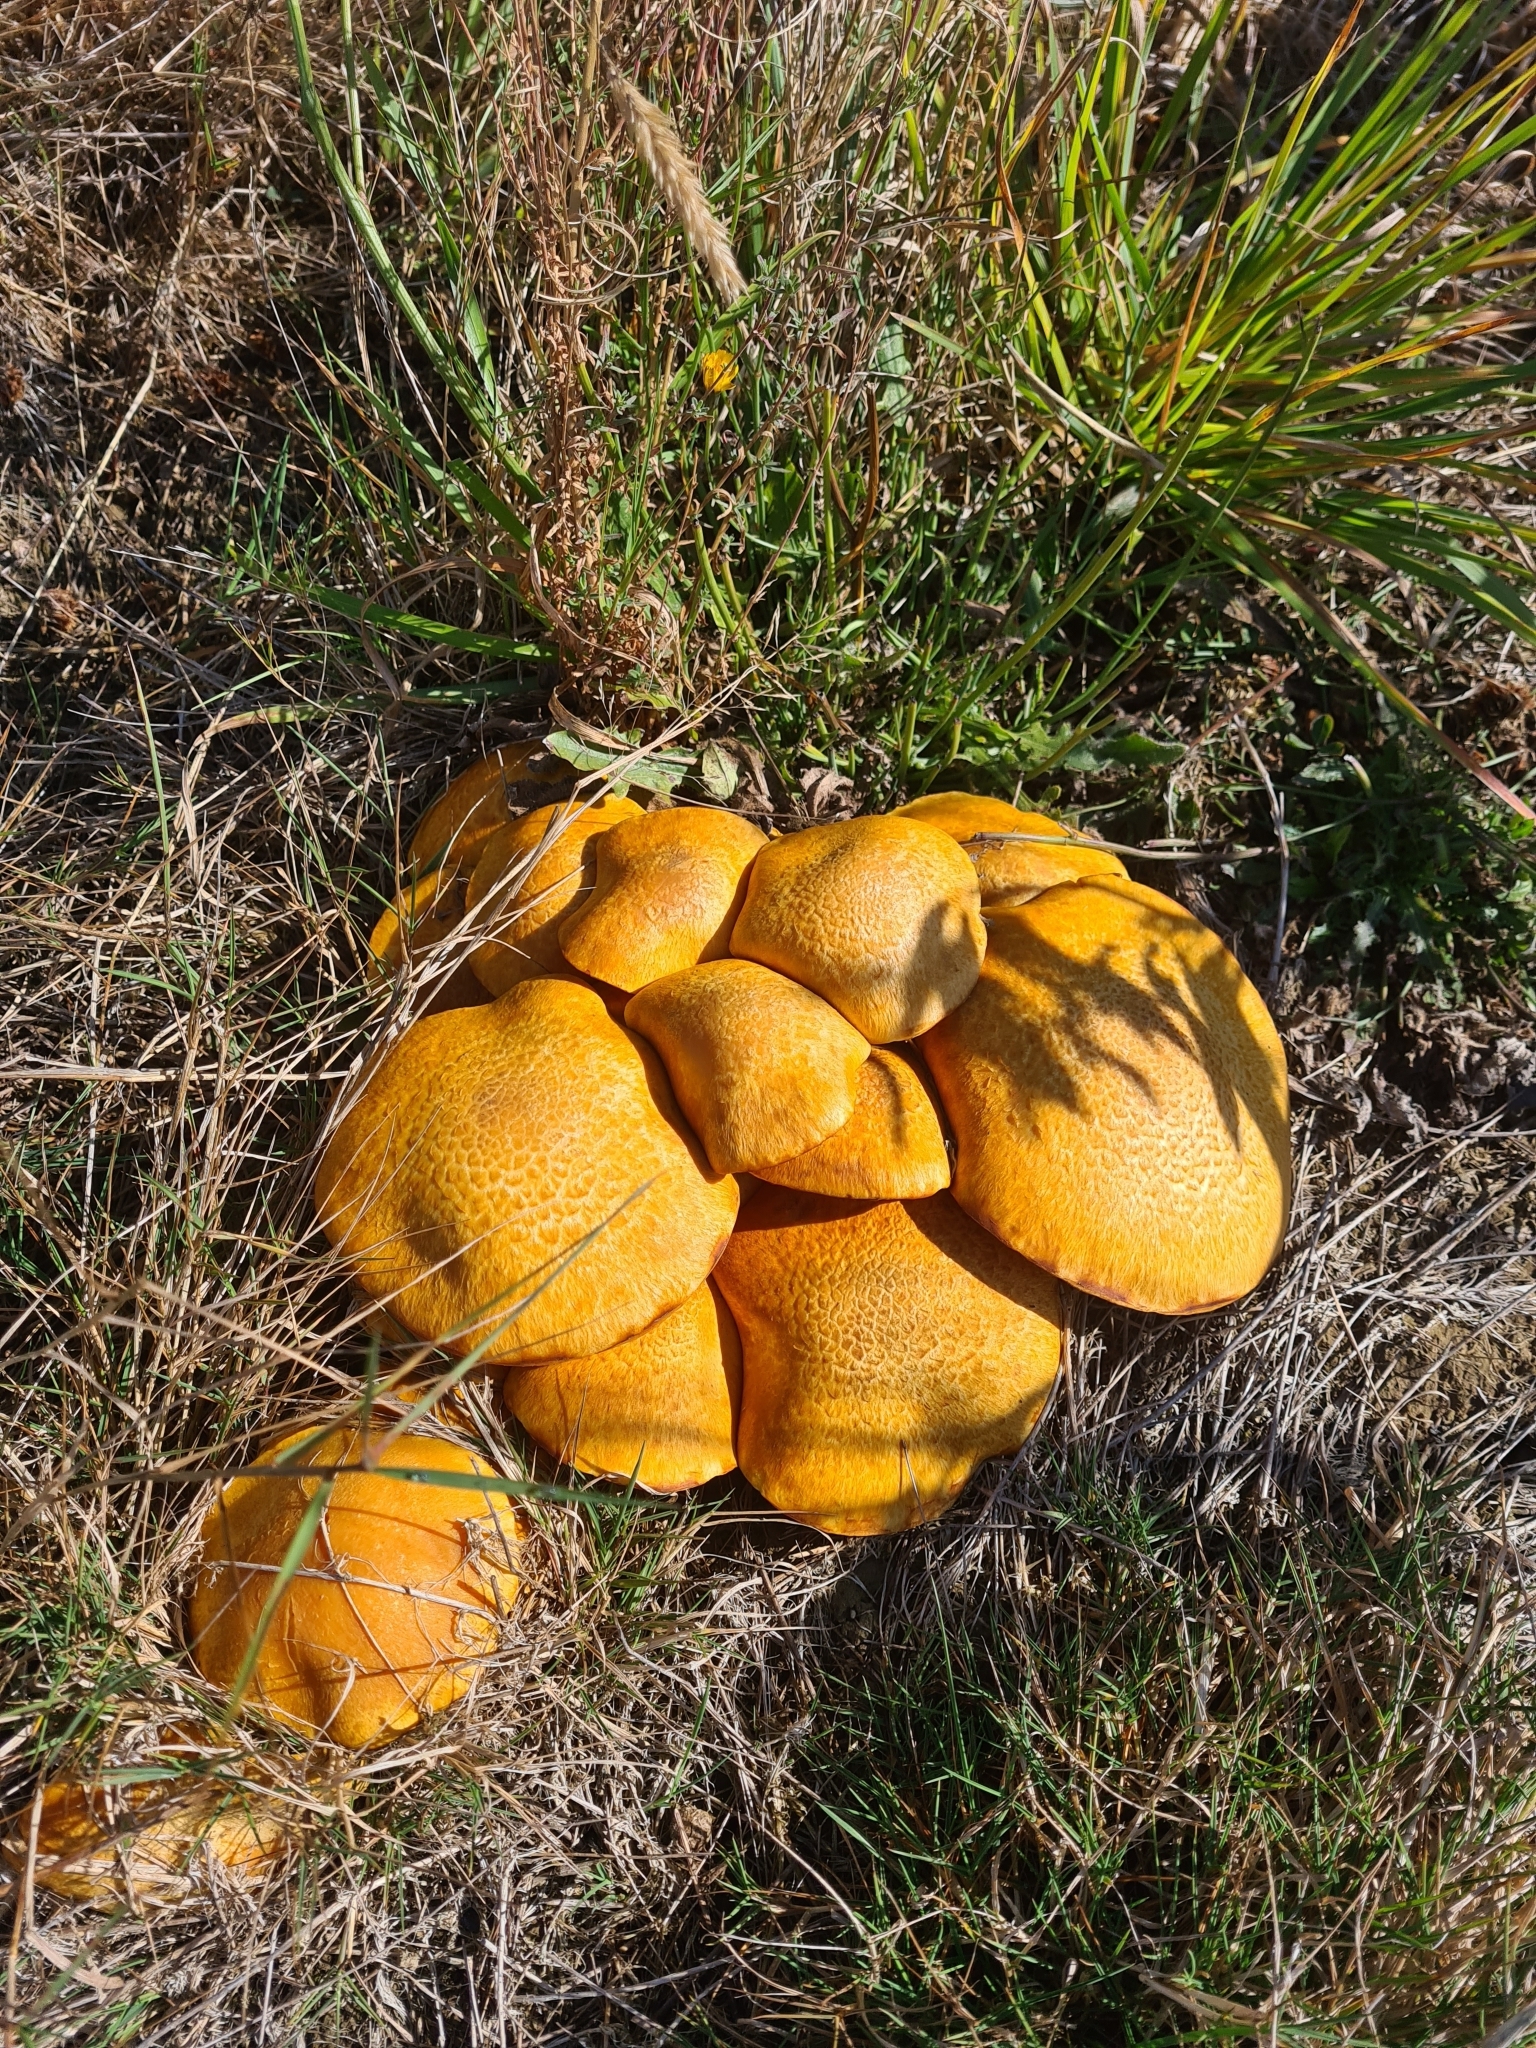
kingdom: Fungi
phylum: Basidiomycota
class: Agaricomycetes
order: Agaricales
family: Hymenogastraceae
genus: Gymnopilus
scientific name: Gymnopilus junonius
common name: Spectacular rustgill
